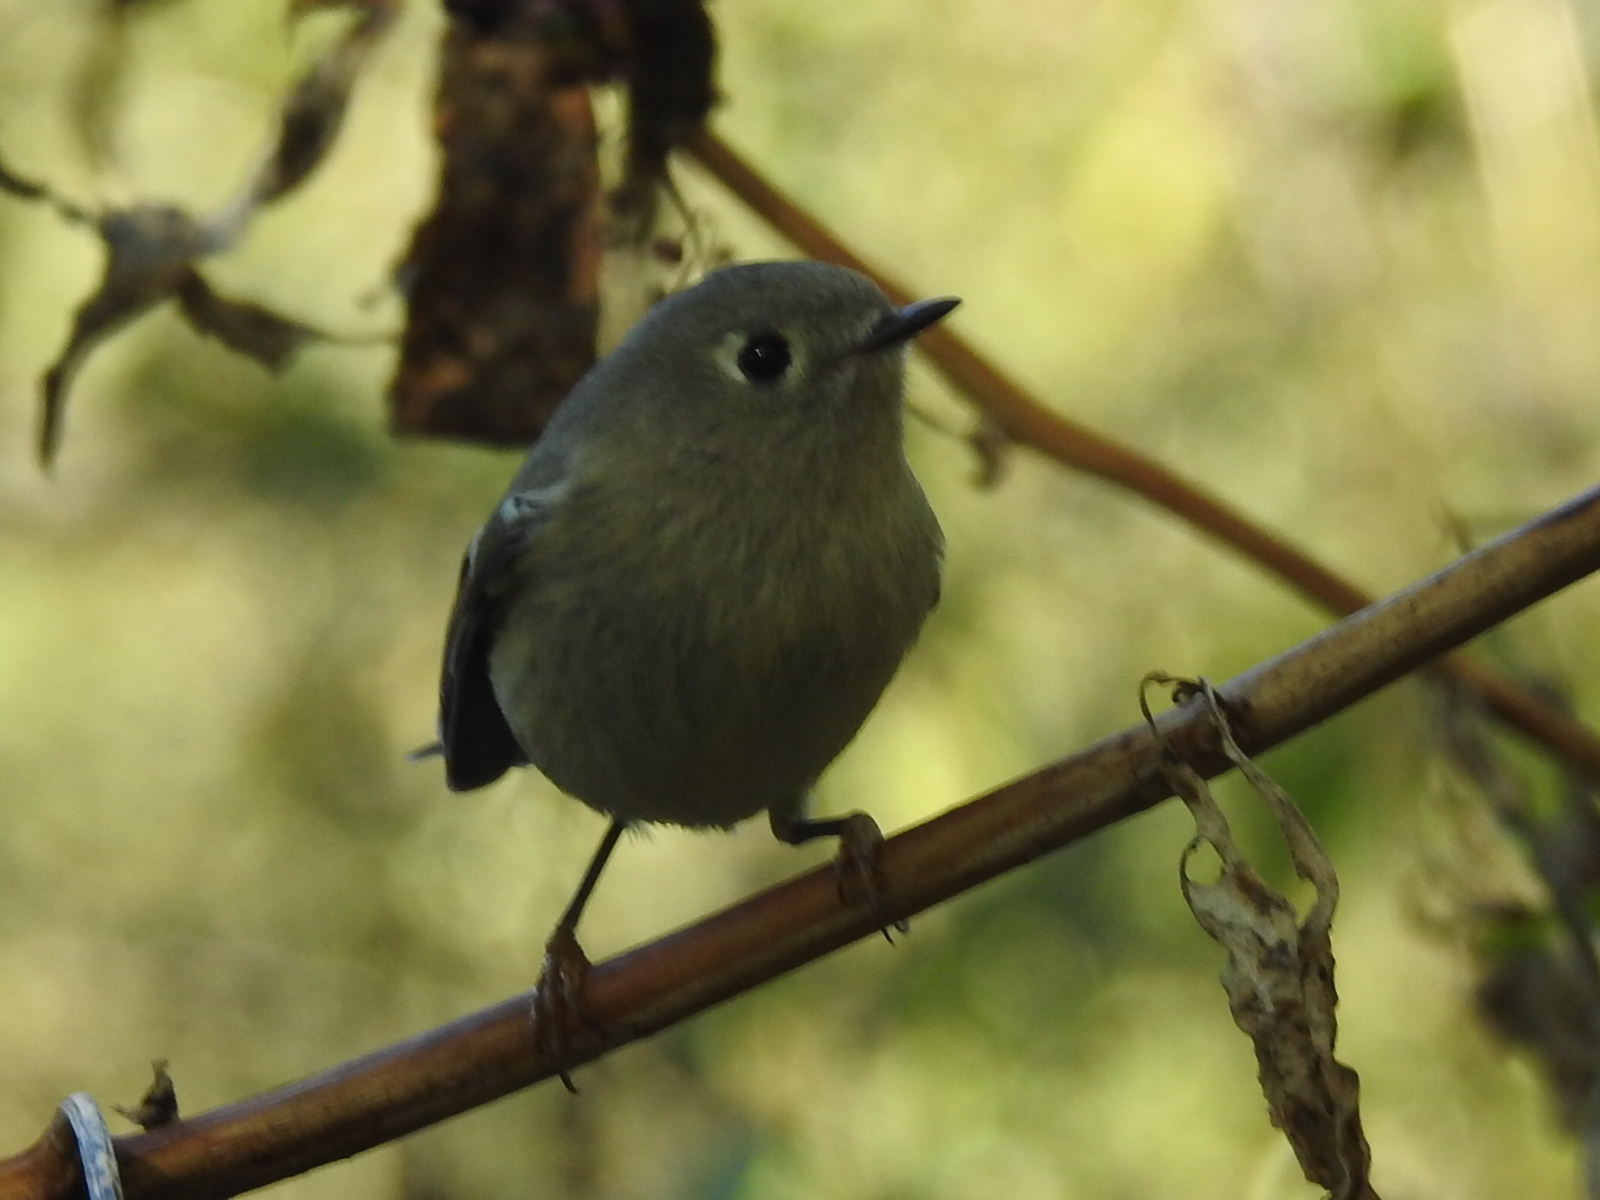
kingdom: Animalia
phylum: Chordata
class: Aves
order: Passeriformes
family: Regulidae
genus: Regulus
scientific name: Regulus calendula
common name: Ruby-crowned kinglet
